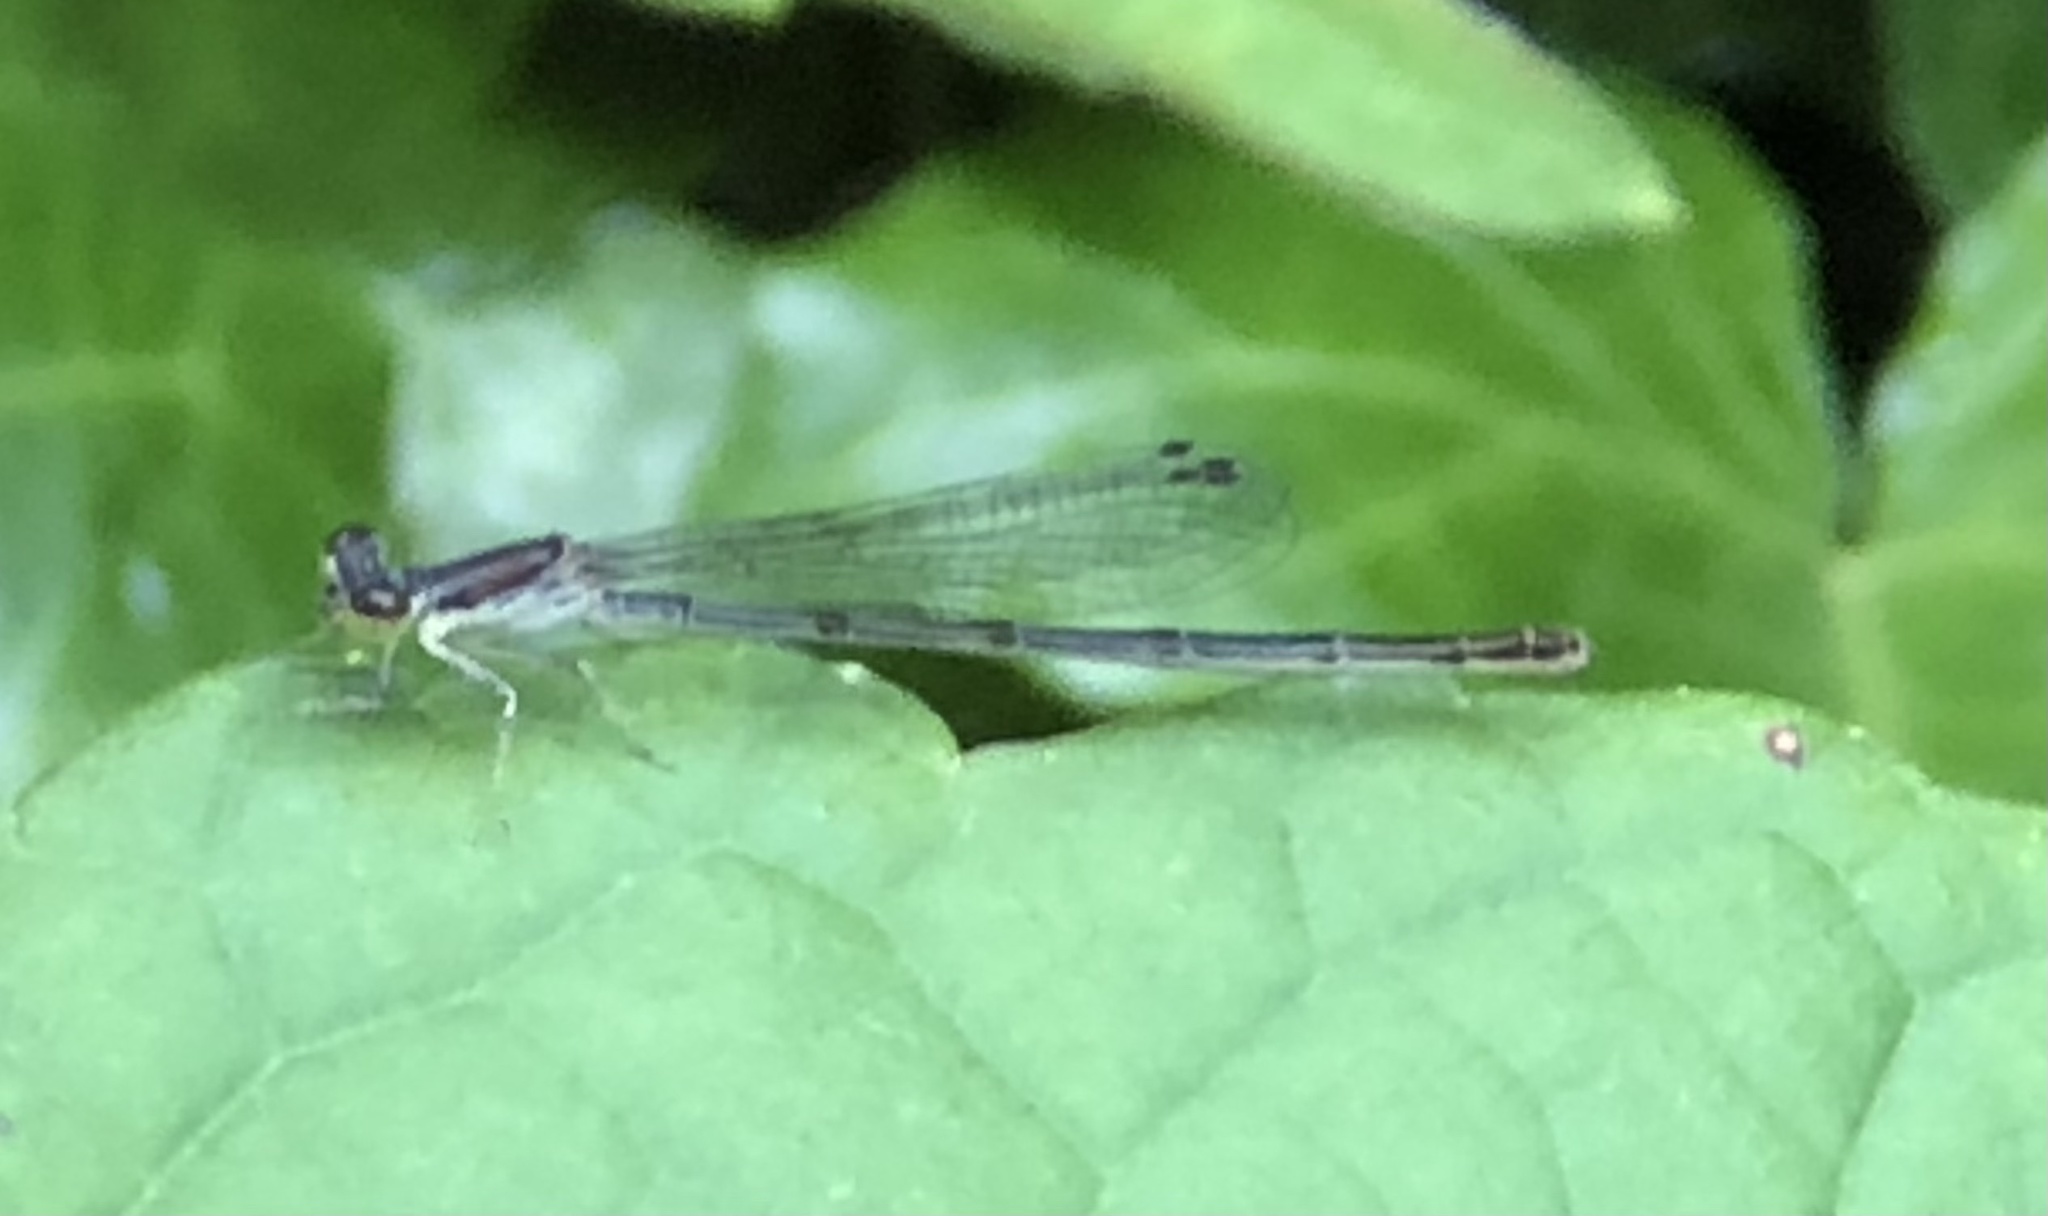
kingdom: Animalia
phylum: Arthropoda
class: Insecta
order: Odonata
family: Coenagrionidae
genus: Ischnura
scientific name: Ischnura posita
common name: Fragile forktail
